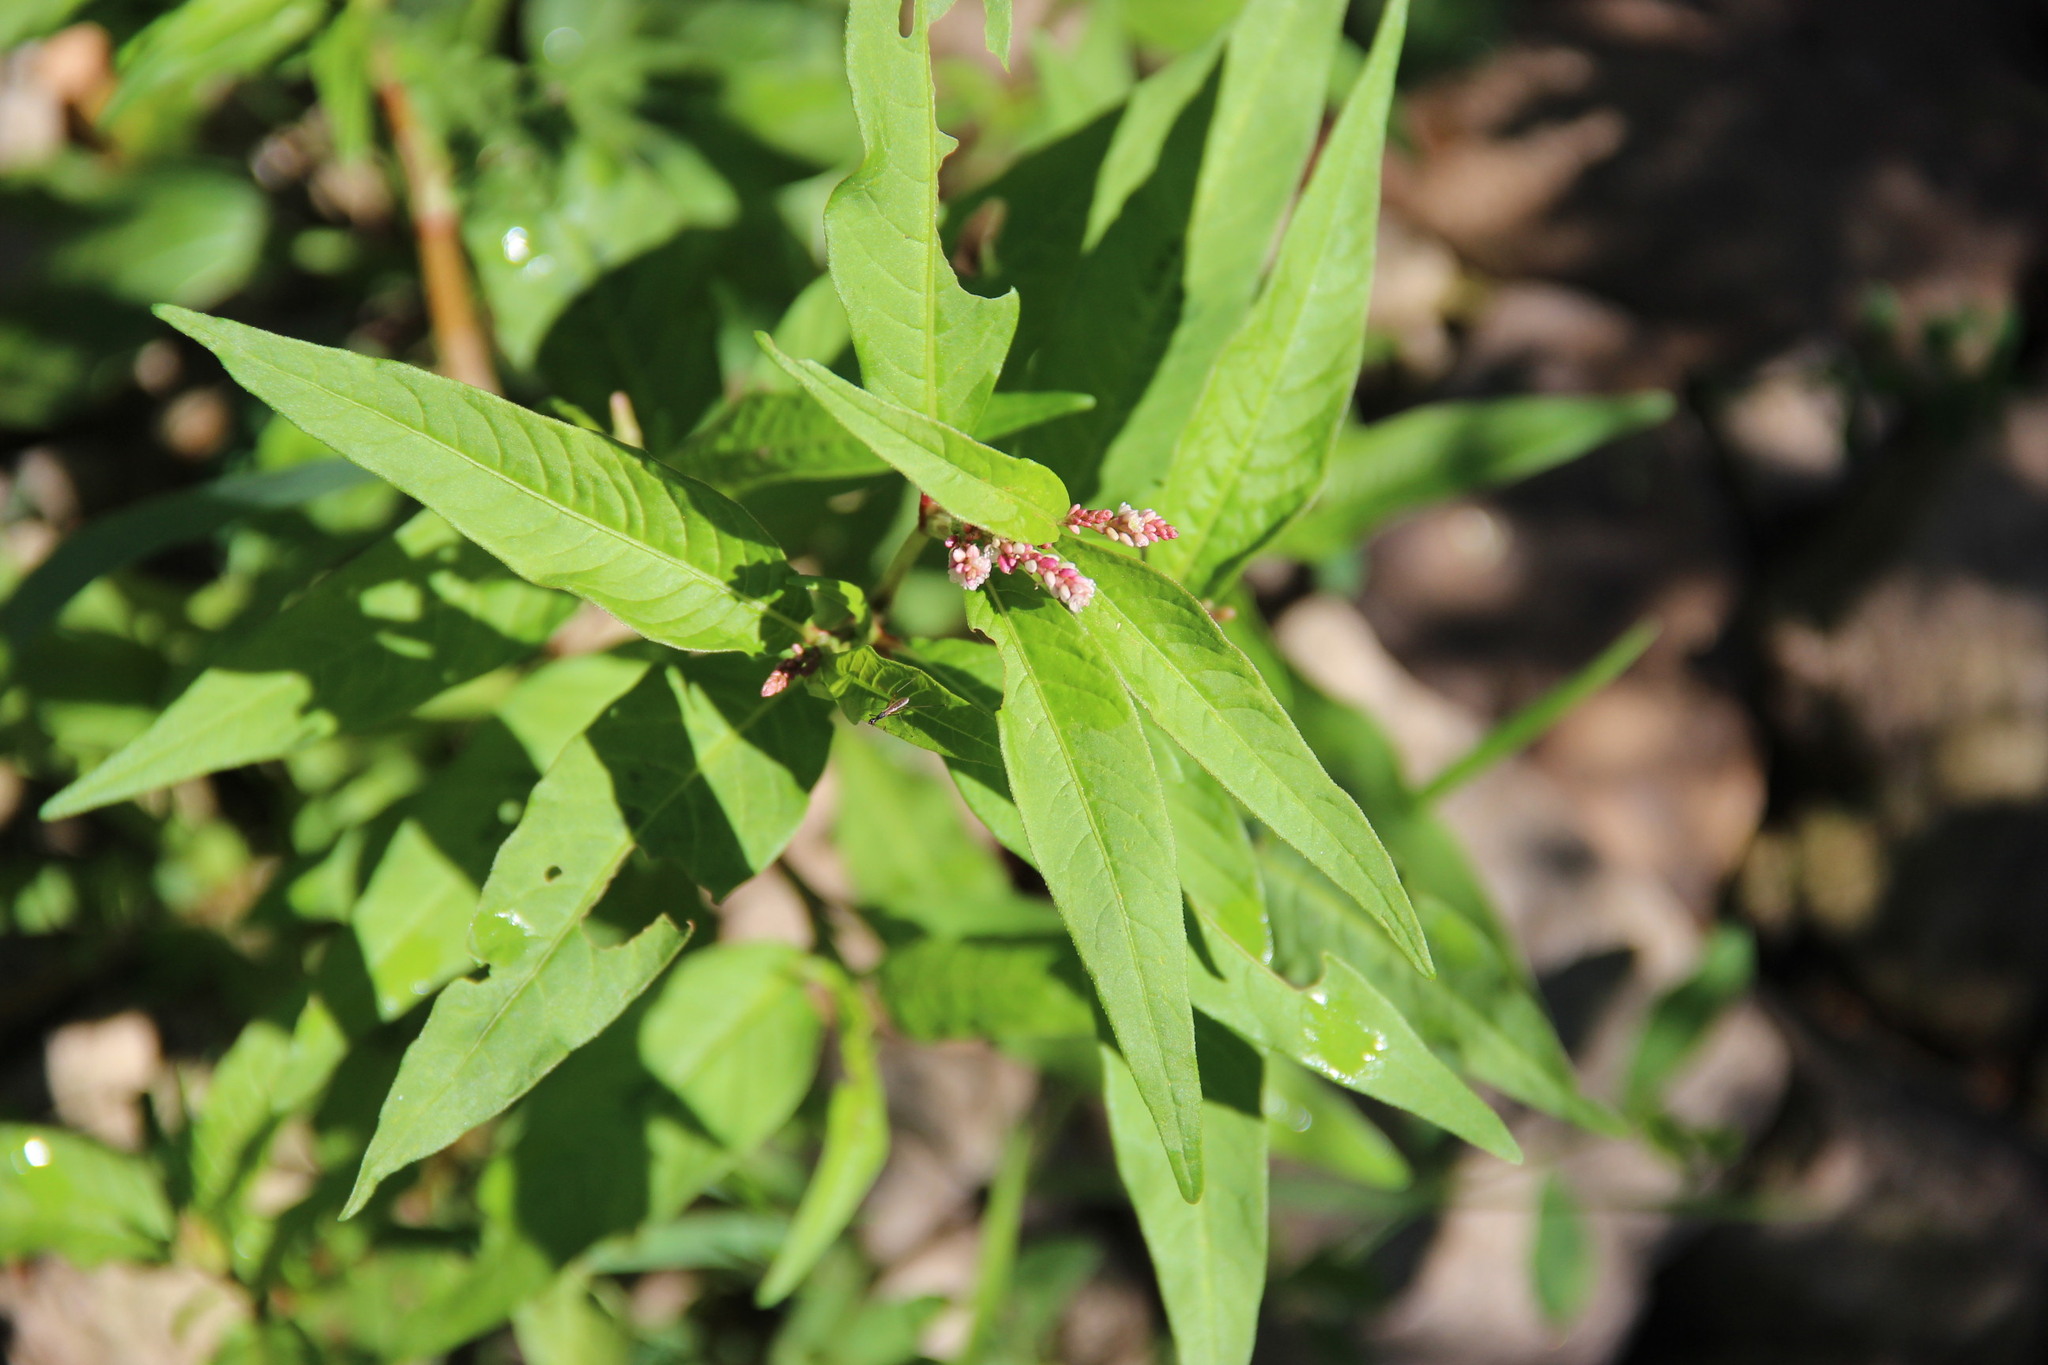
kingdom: Plantae
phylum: Tracheophyta
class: Magnoliopsida
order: Caryophyllales
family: Polygonaceae
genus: Persicaria
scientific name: Persicaria maculosa
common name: Redshank
